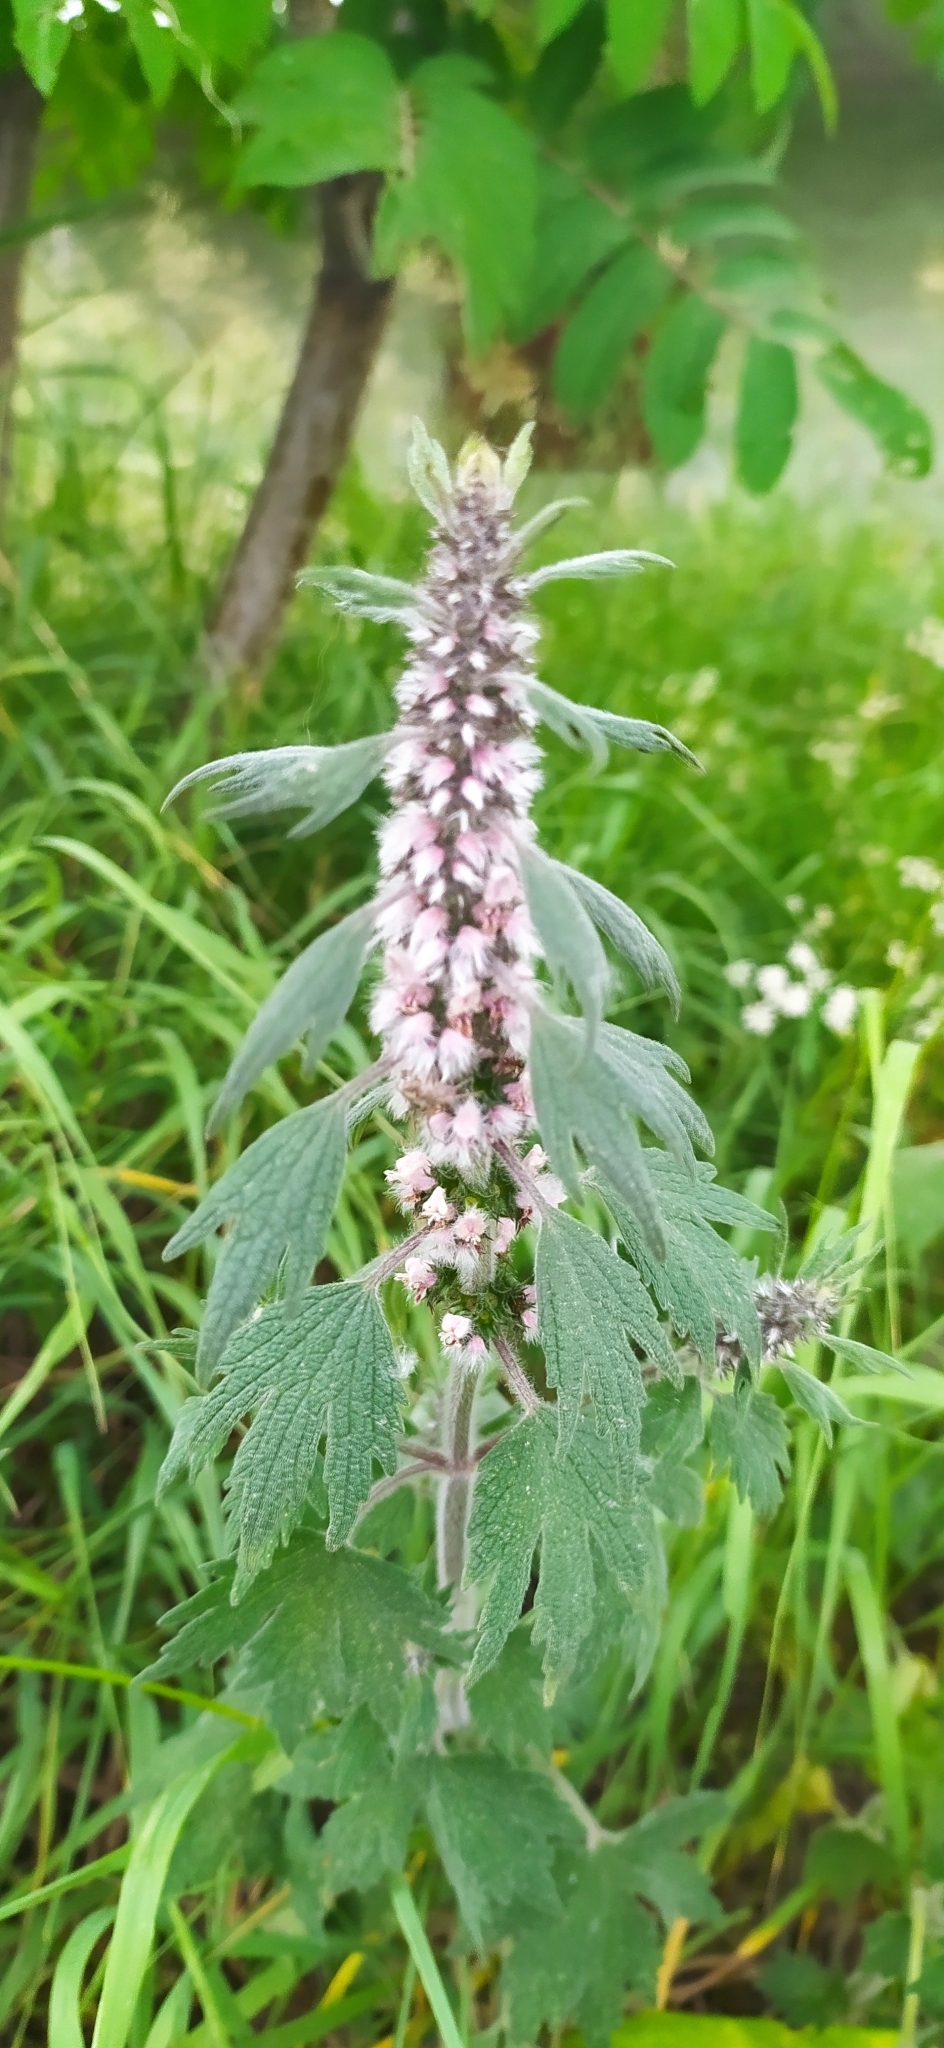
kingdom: Plantae
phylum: Tracheophyta
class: Magnoliopsida
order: Lamiales
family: Lamiaceae
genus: Leonurus
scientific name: Leonurus quinquelobatus
